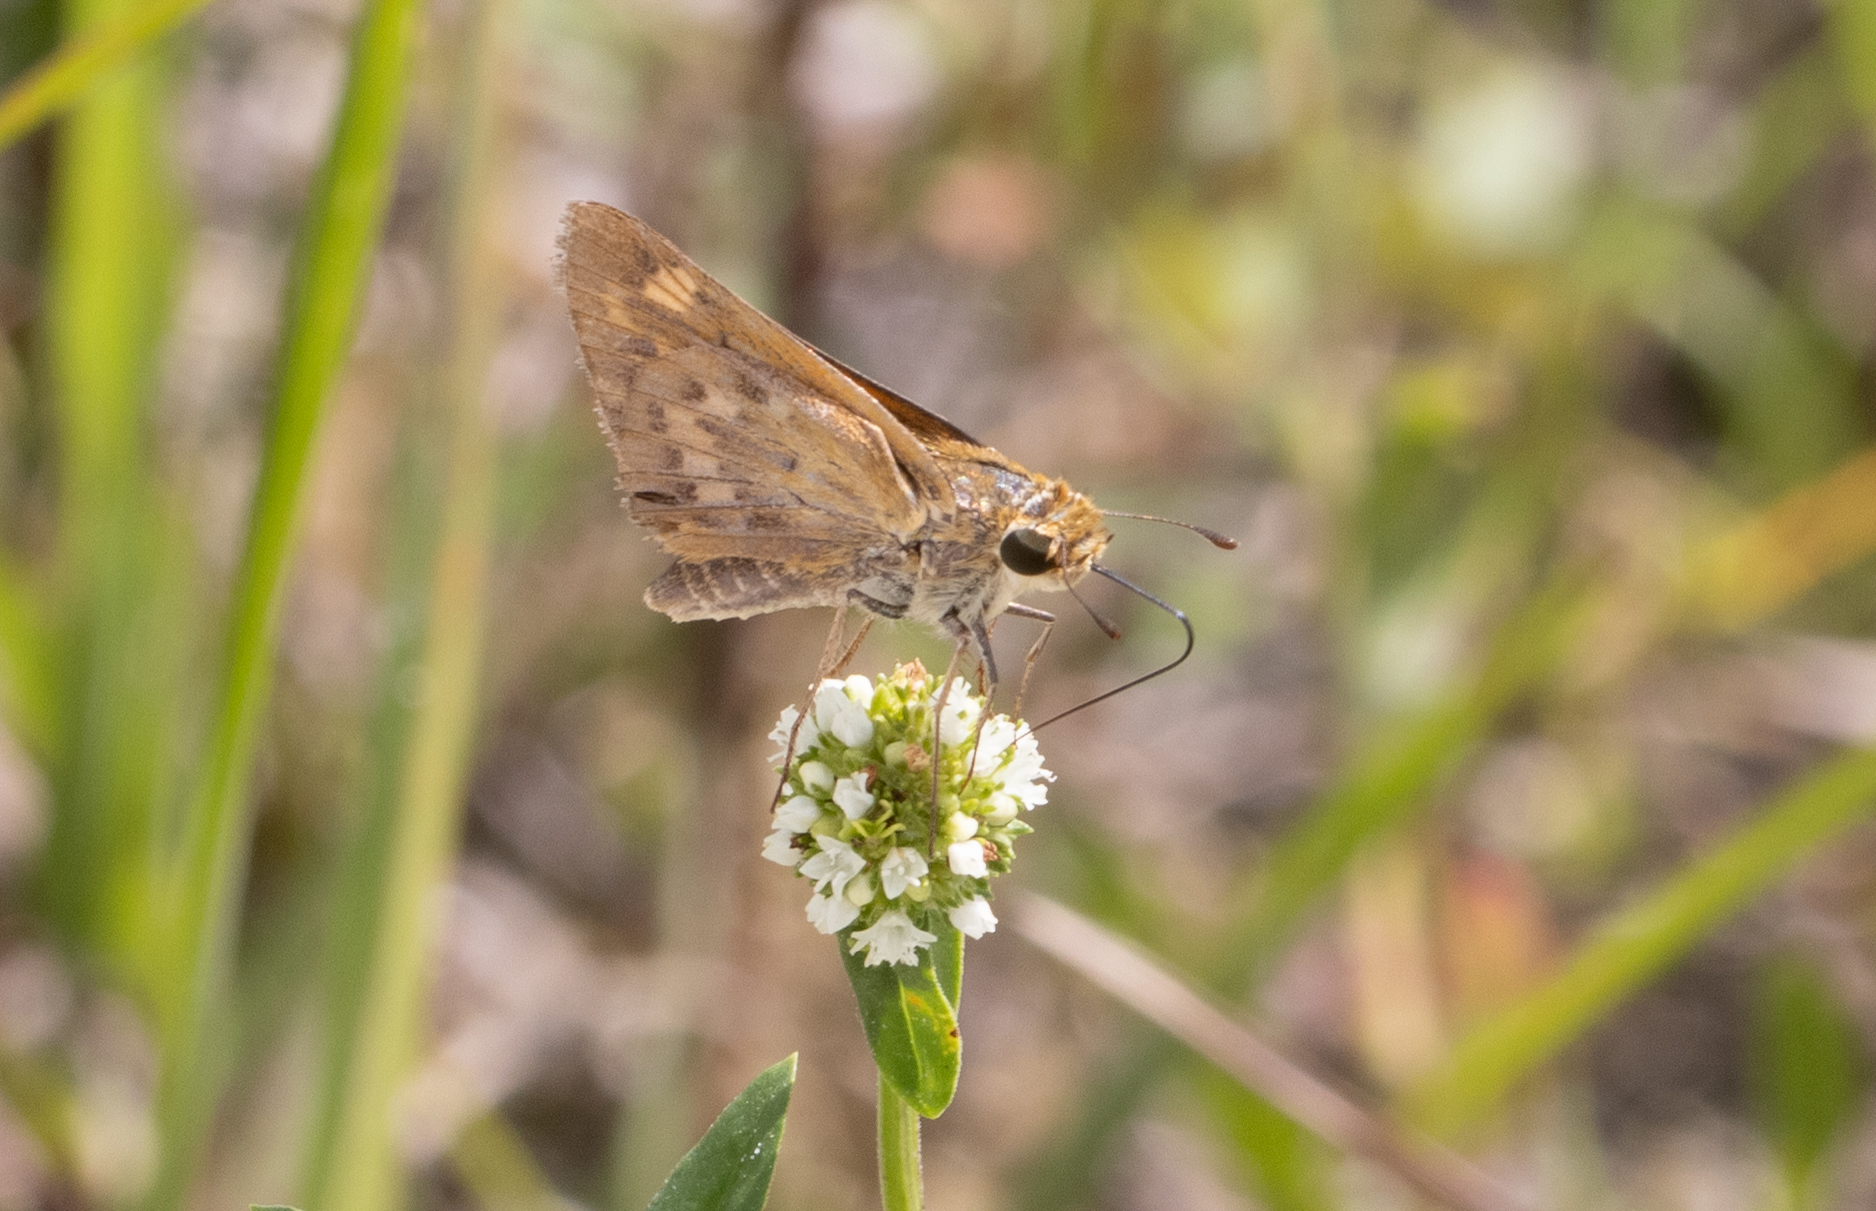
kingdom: Animalia
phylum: Arthropoda
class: Insecta
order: Lepidoptera
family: Hesperiidae
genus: Hylephila
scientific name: Hylephila phyleus
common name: Fiery skipper
